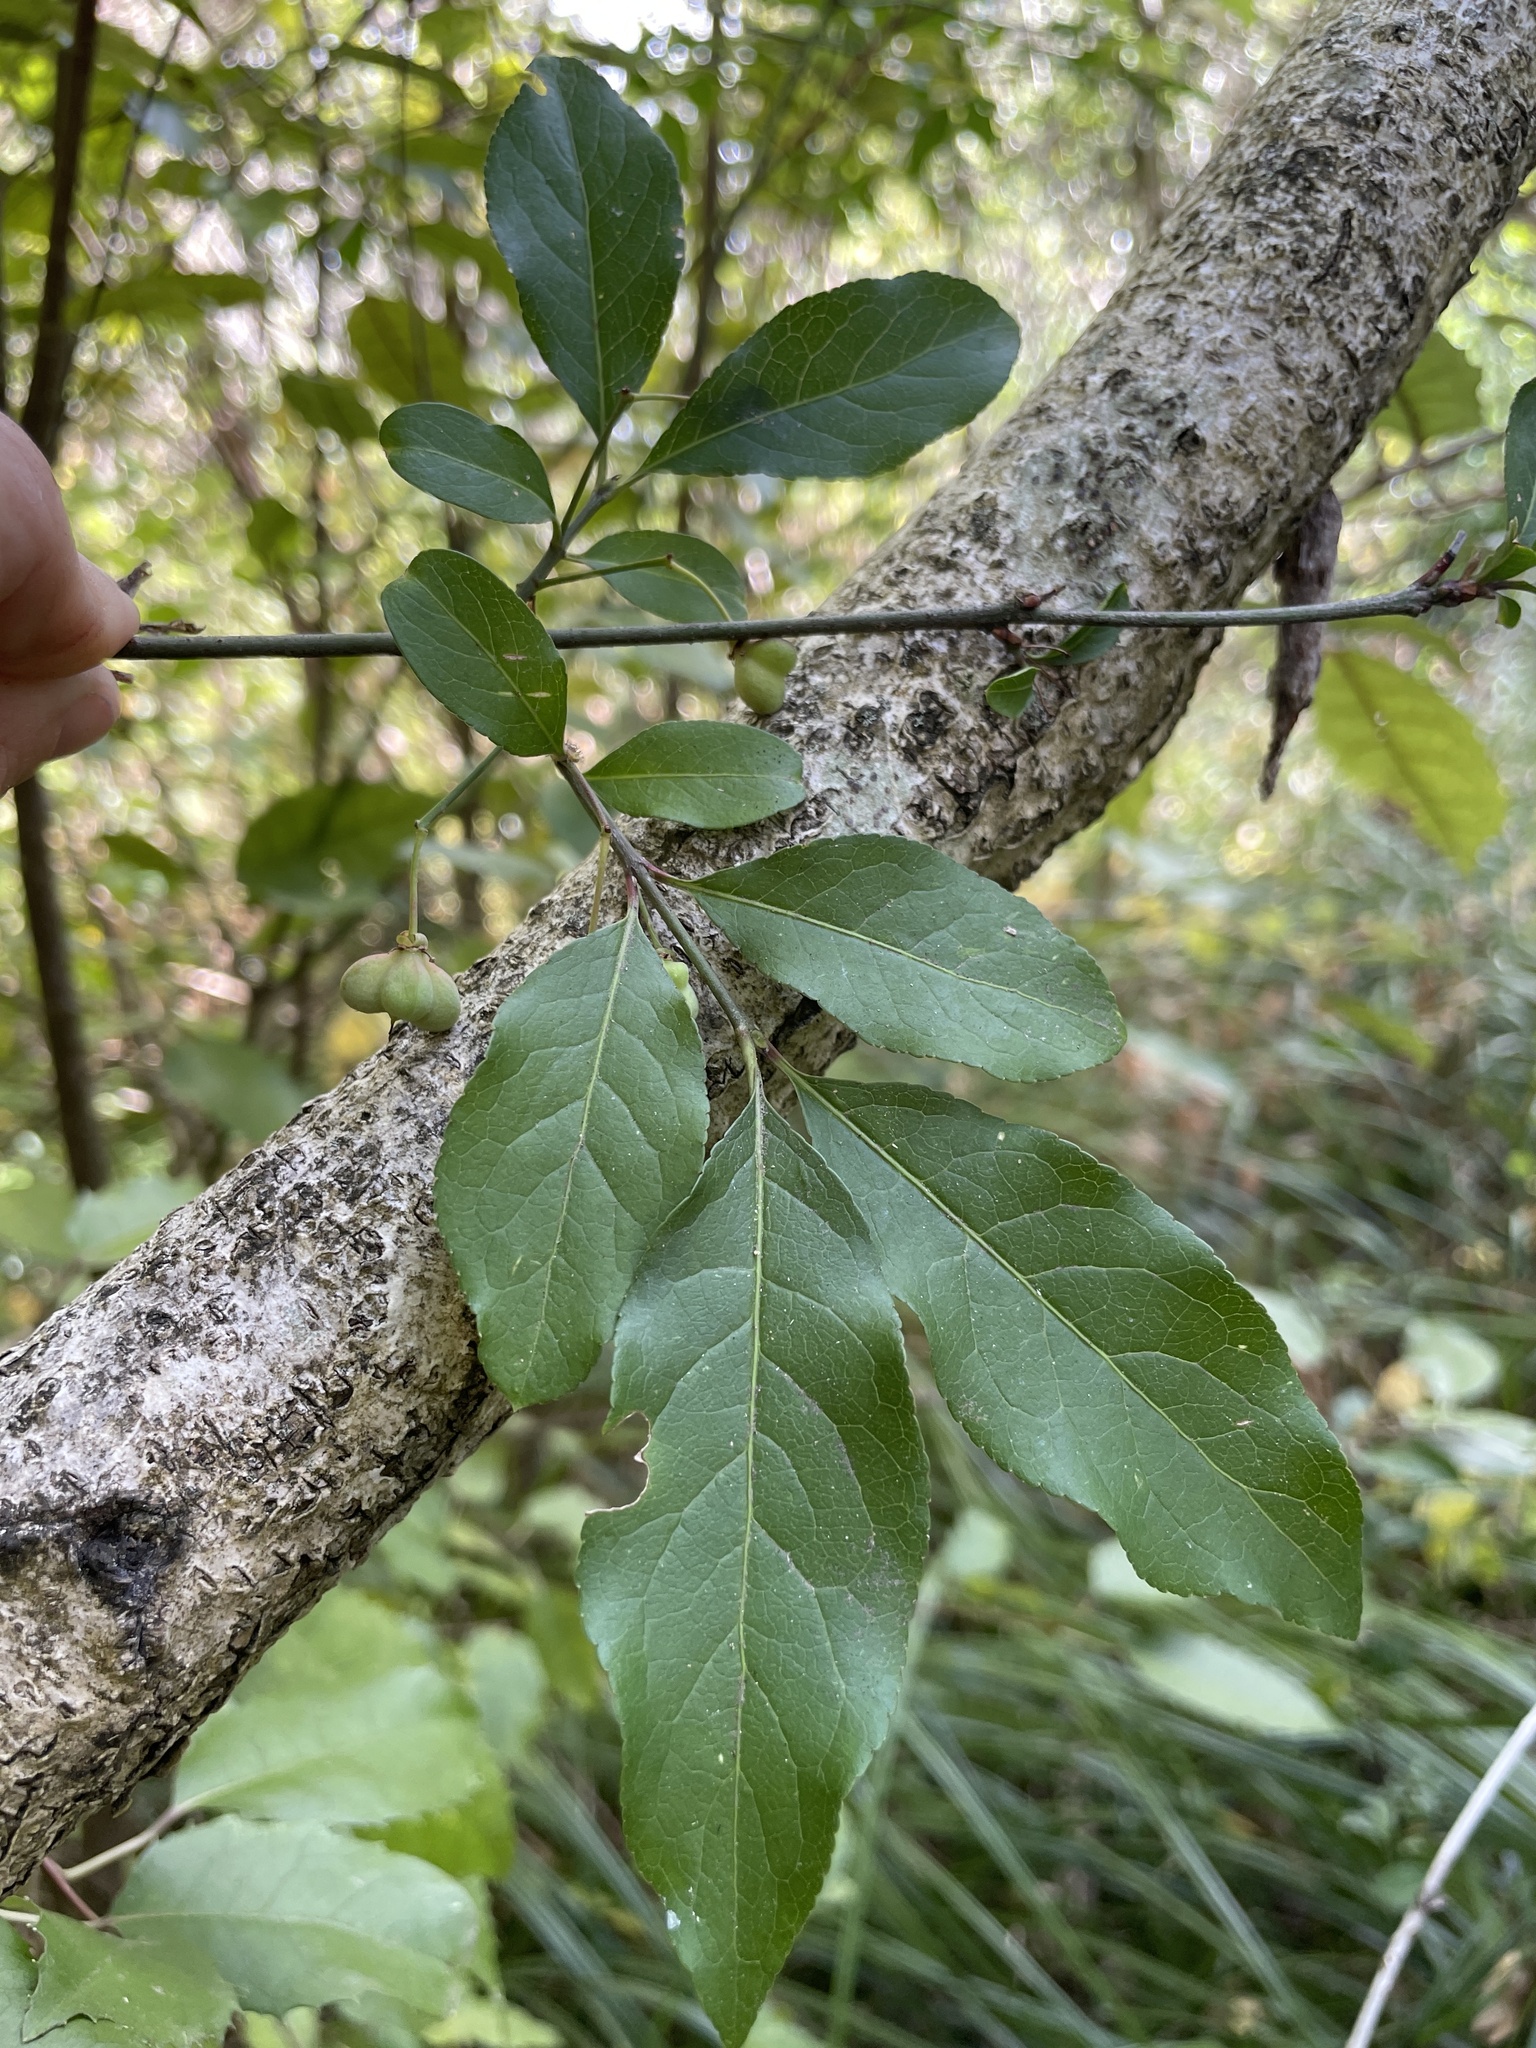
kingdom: Plantae
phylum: Tracheophyta
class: Magnoliopsida
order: Celastrales
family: Celastraceae
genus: Euonymus
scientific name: Euonymus europaeus
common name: Spindle
